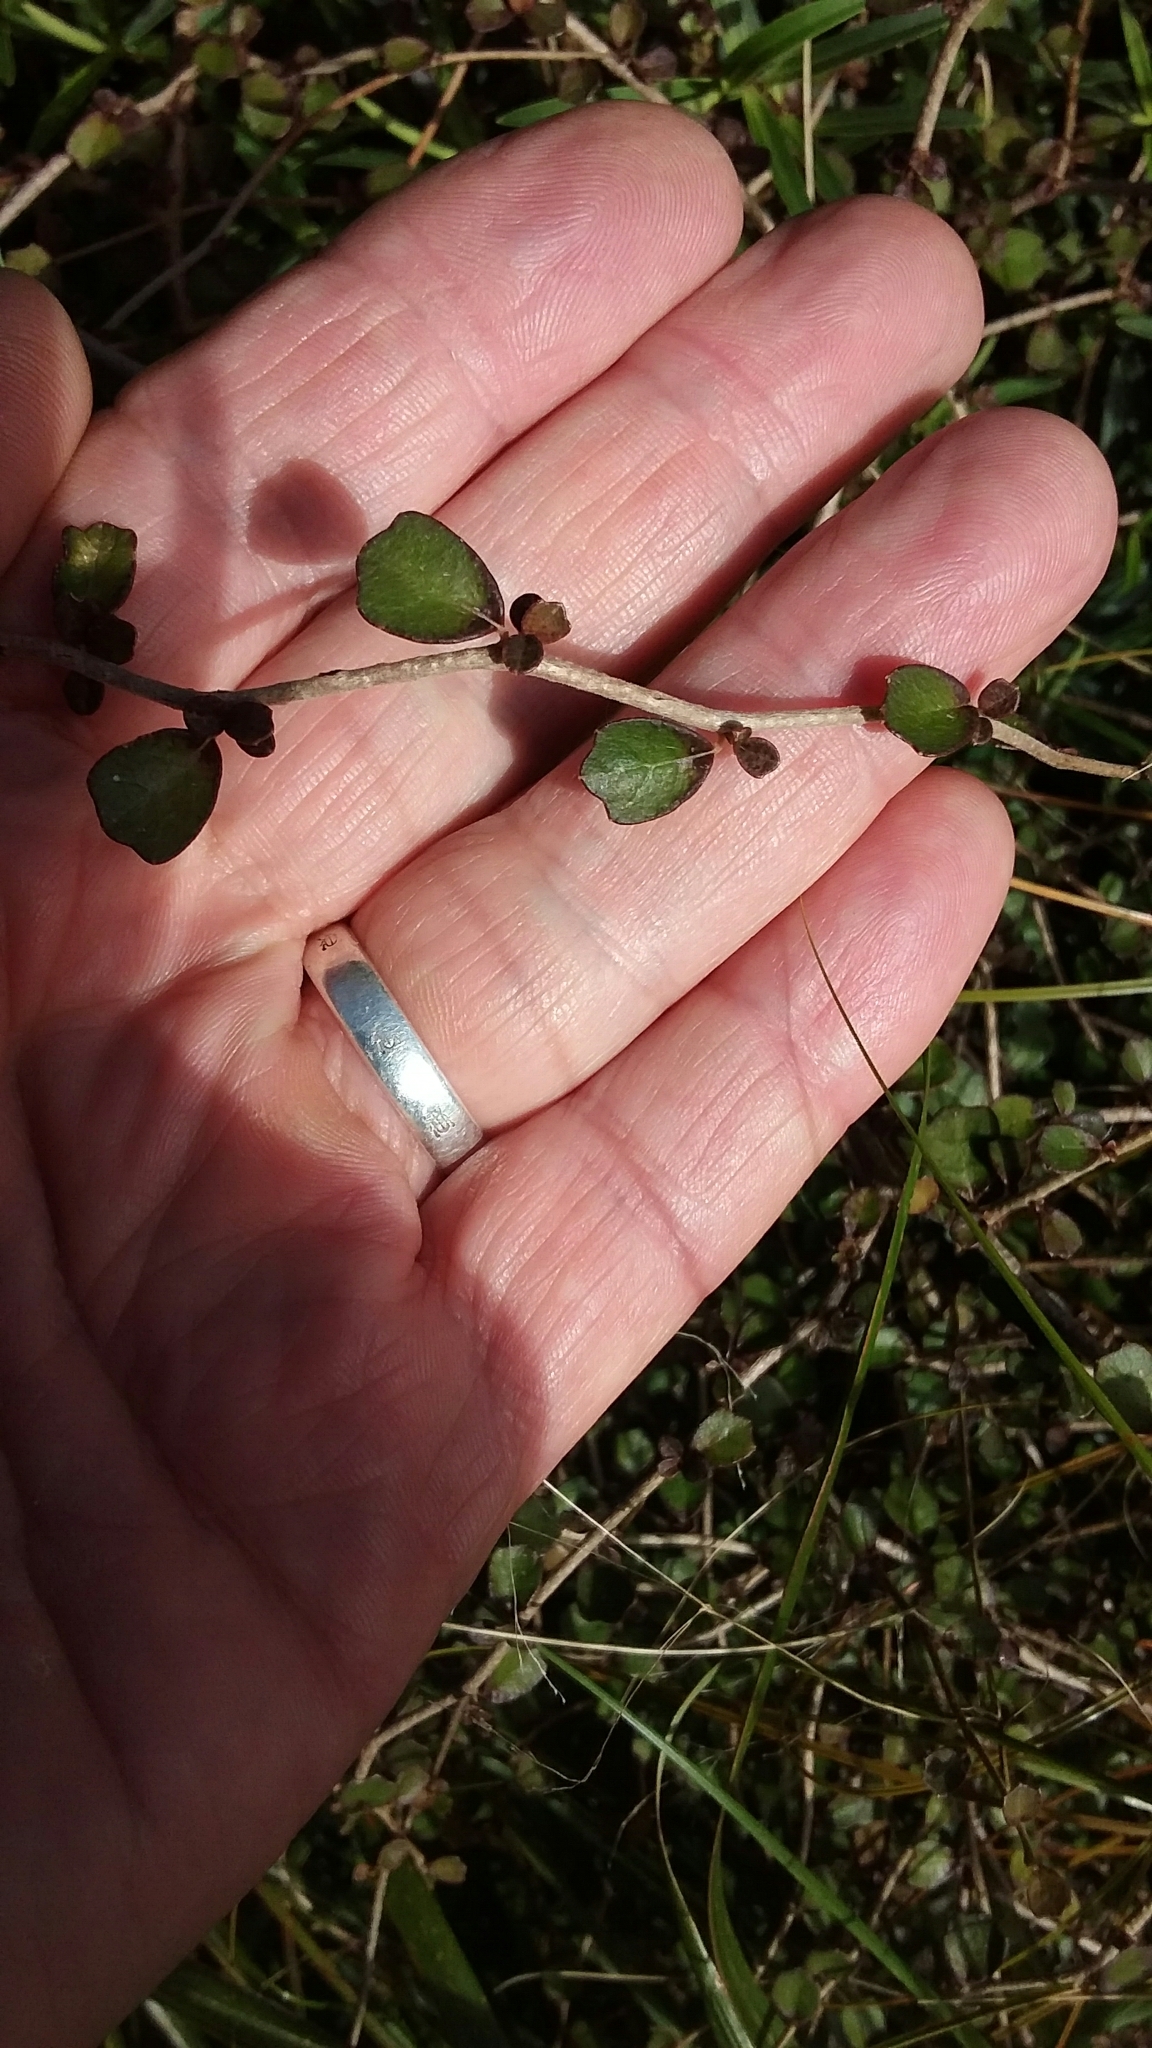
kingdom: Plantae
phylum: Tracheophyta
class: Magnoliopsida
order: Apiales
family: Pennantiaceae
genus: Pennantia
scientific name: Pennantia corymbosa
